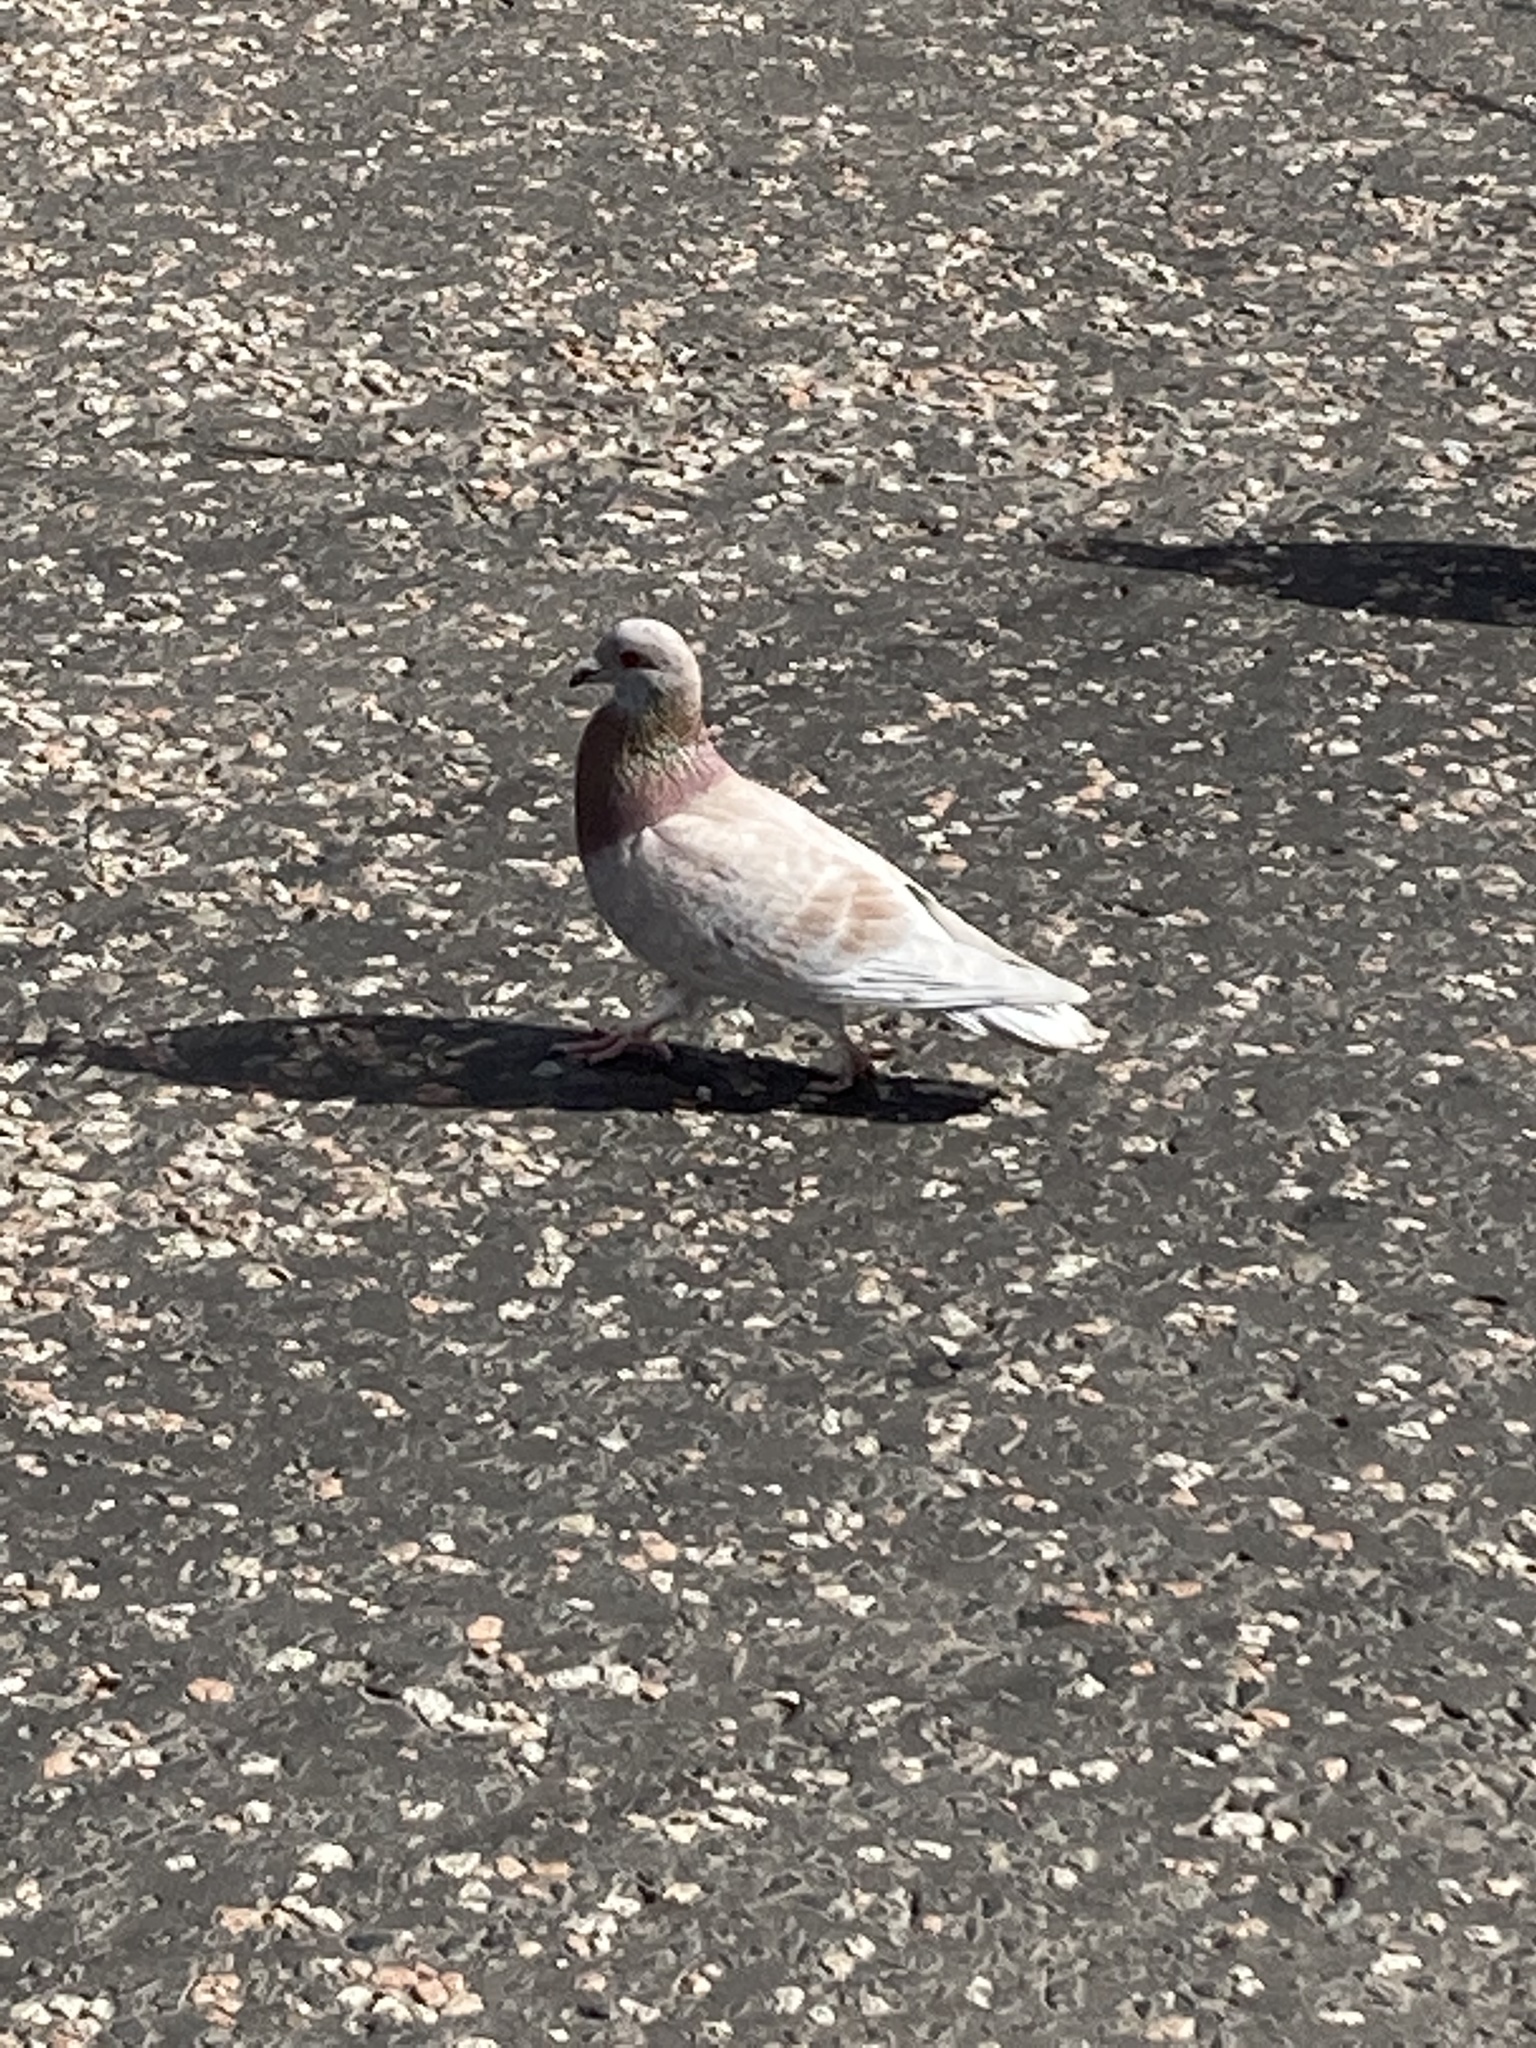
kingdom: Animalia
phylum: Chordata
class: Aves
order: Columbiformes
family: Columbidae
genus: Columba
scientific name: Columba livia
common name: Rock pigeon
